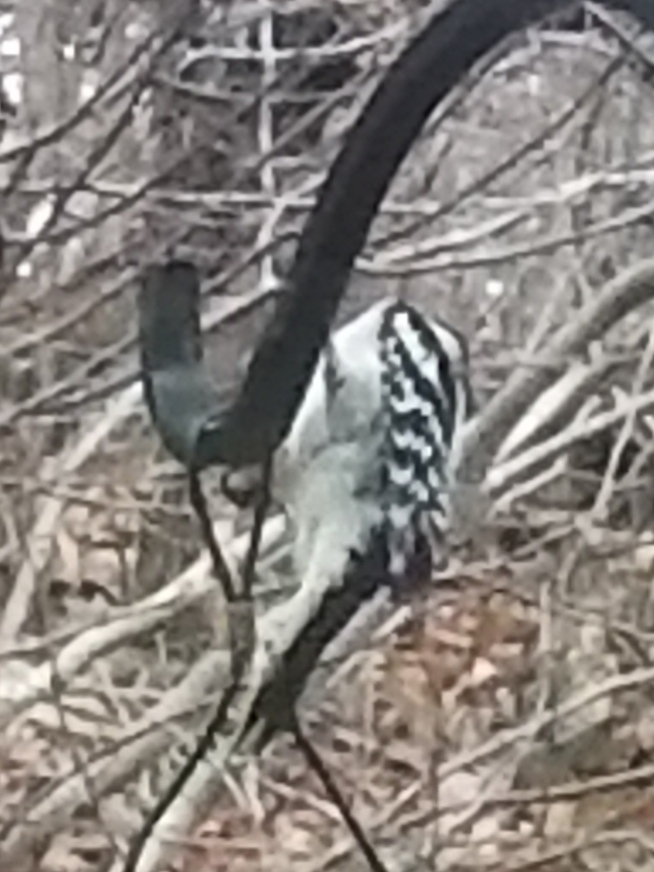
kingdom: Animalia
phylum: Chordata
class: Aves
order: Piciformes
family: Picidae
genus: Leuconotopicus
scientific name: Leuconotopicus villosus
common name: Hairy woodpecker
